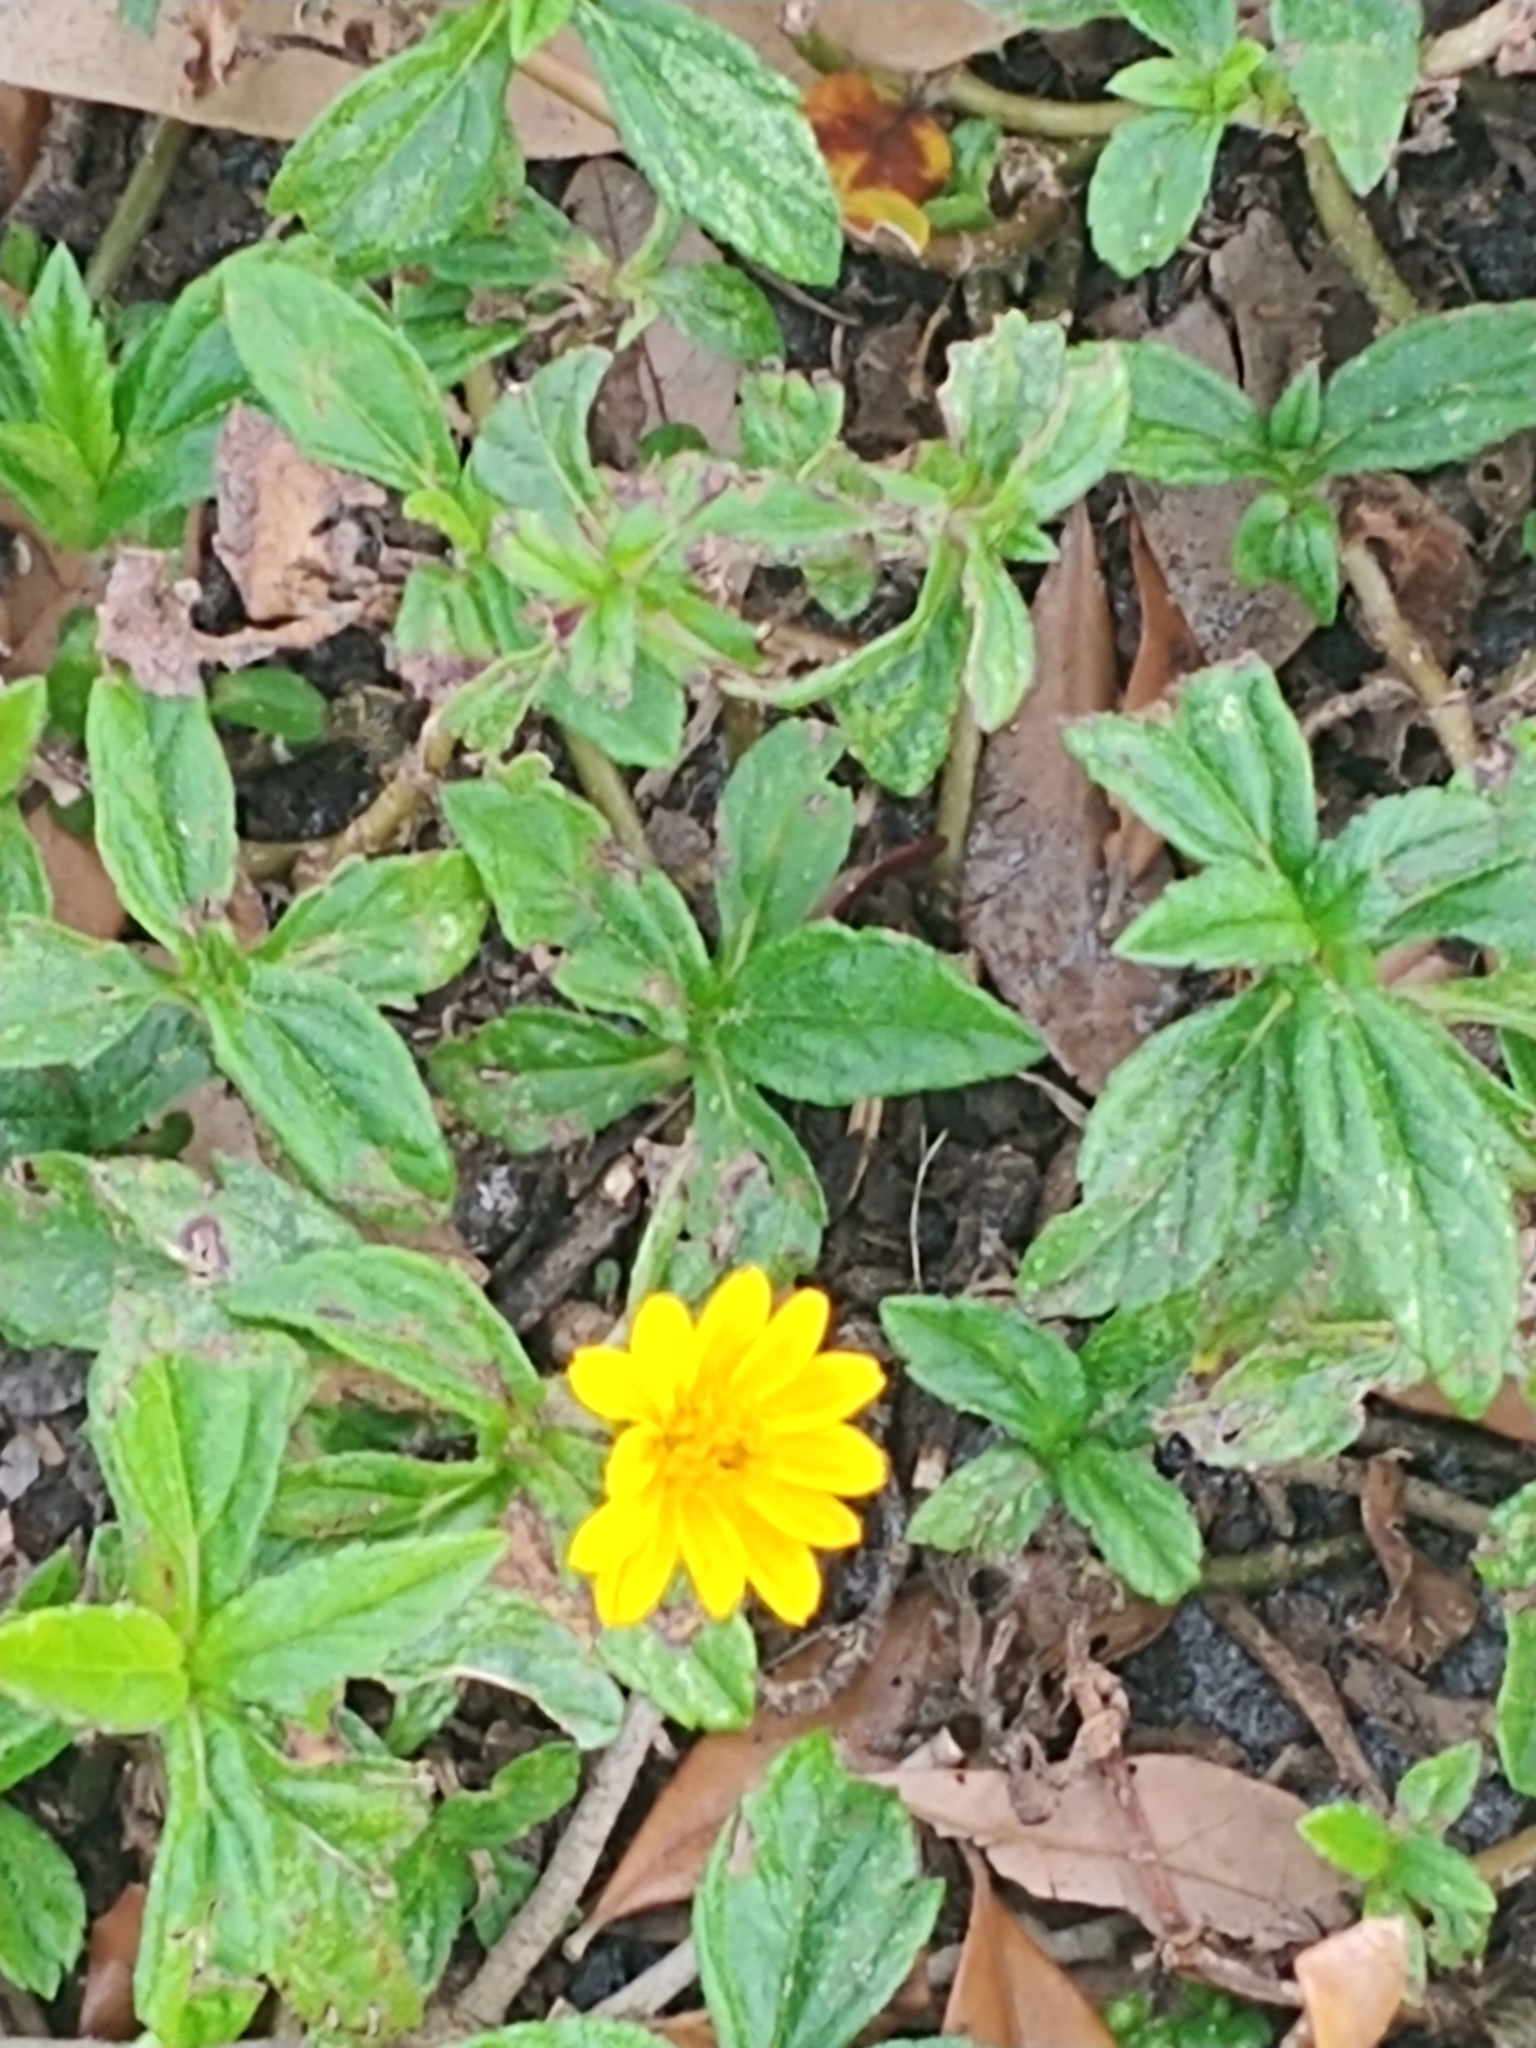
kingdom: Plantae
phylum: Tracheophyta
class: Magnoliopsida
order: Asterales
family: Asteraceae
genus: Sphagneticola
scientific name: Sphagneticola trilobata
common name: Bay biscayne creeping-oxeye
